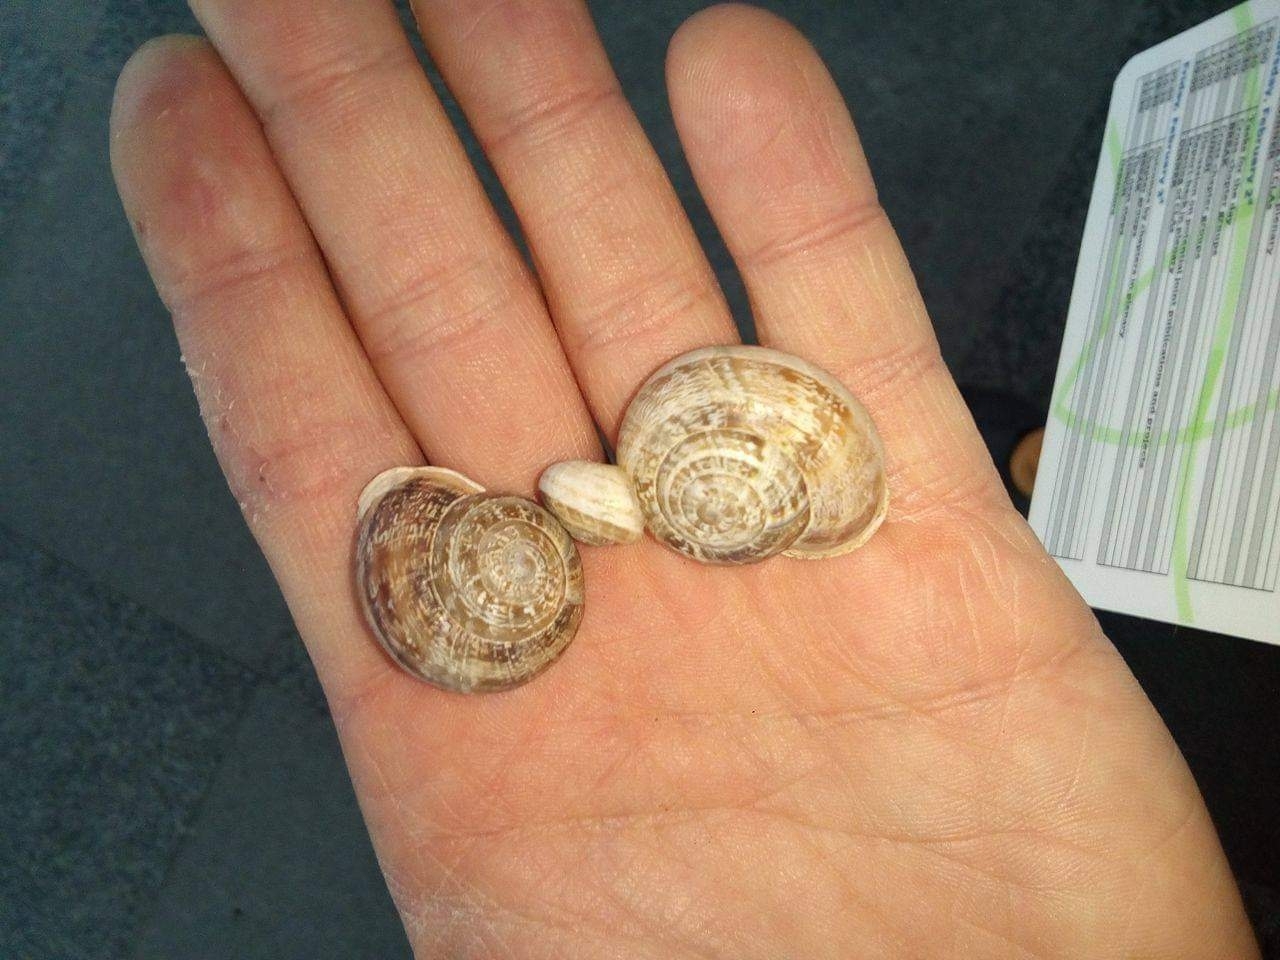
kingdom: Animalia
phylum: Mollusca
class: Gastropoda
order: Stylommatophora
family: Helicidae
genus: Eobania
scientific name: Eobania vermiculata
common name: Chocolateband snail
